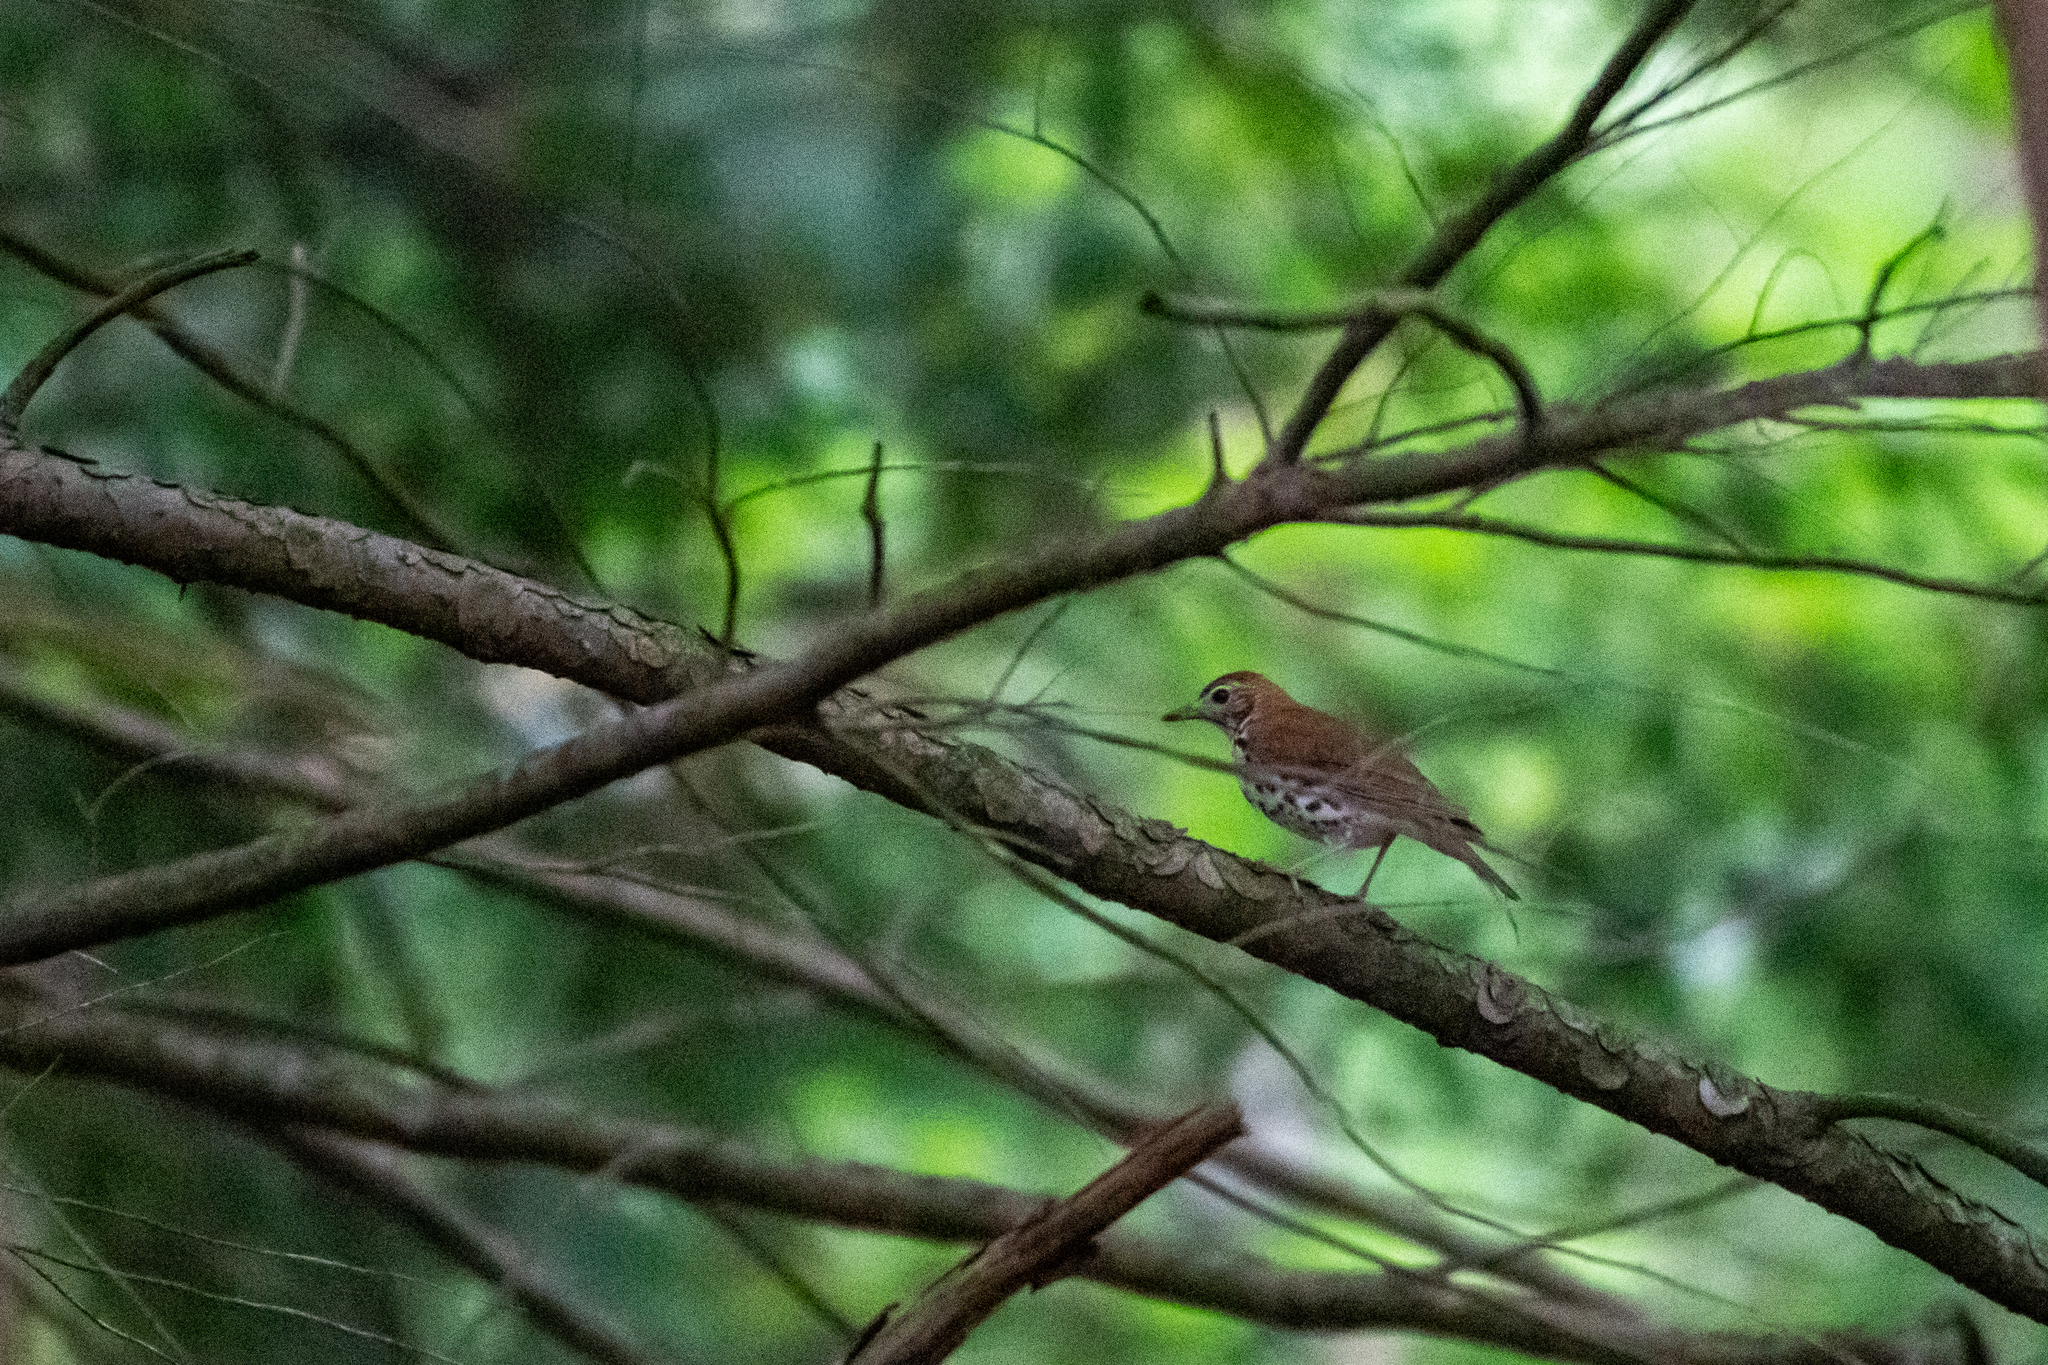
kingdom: Animalia
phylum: Chordata
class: Aves
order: Passeriformes
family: Turdidae
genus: Hylocichla
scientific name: Hylocichla mustelina
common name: Wood thrush
